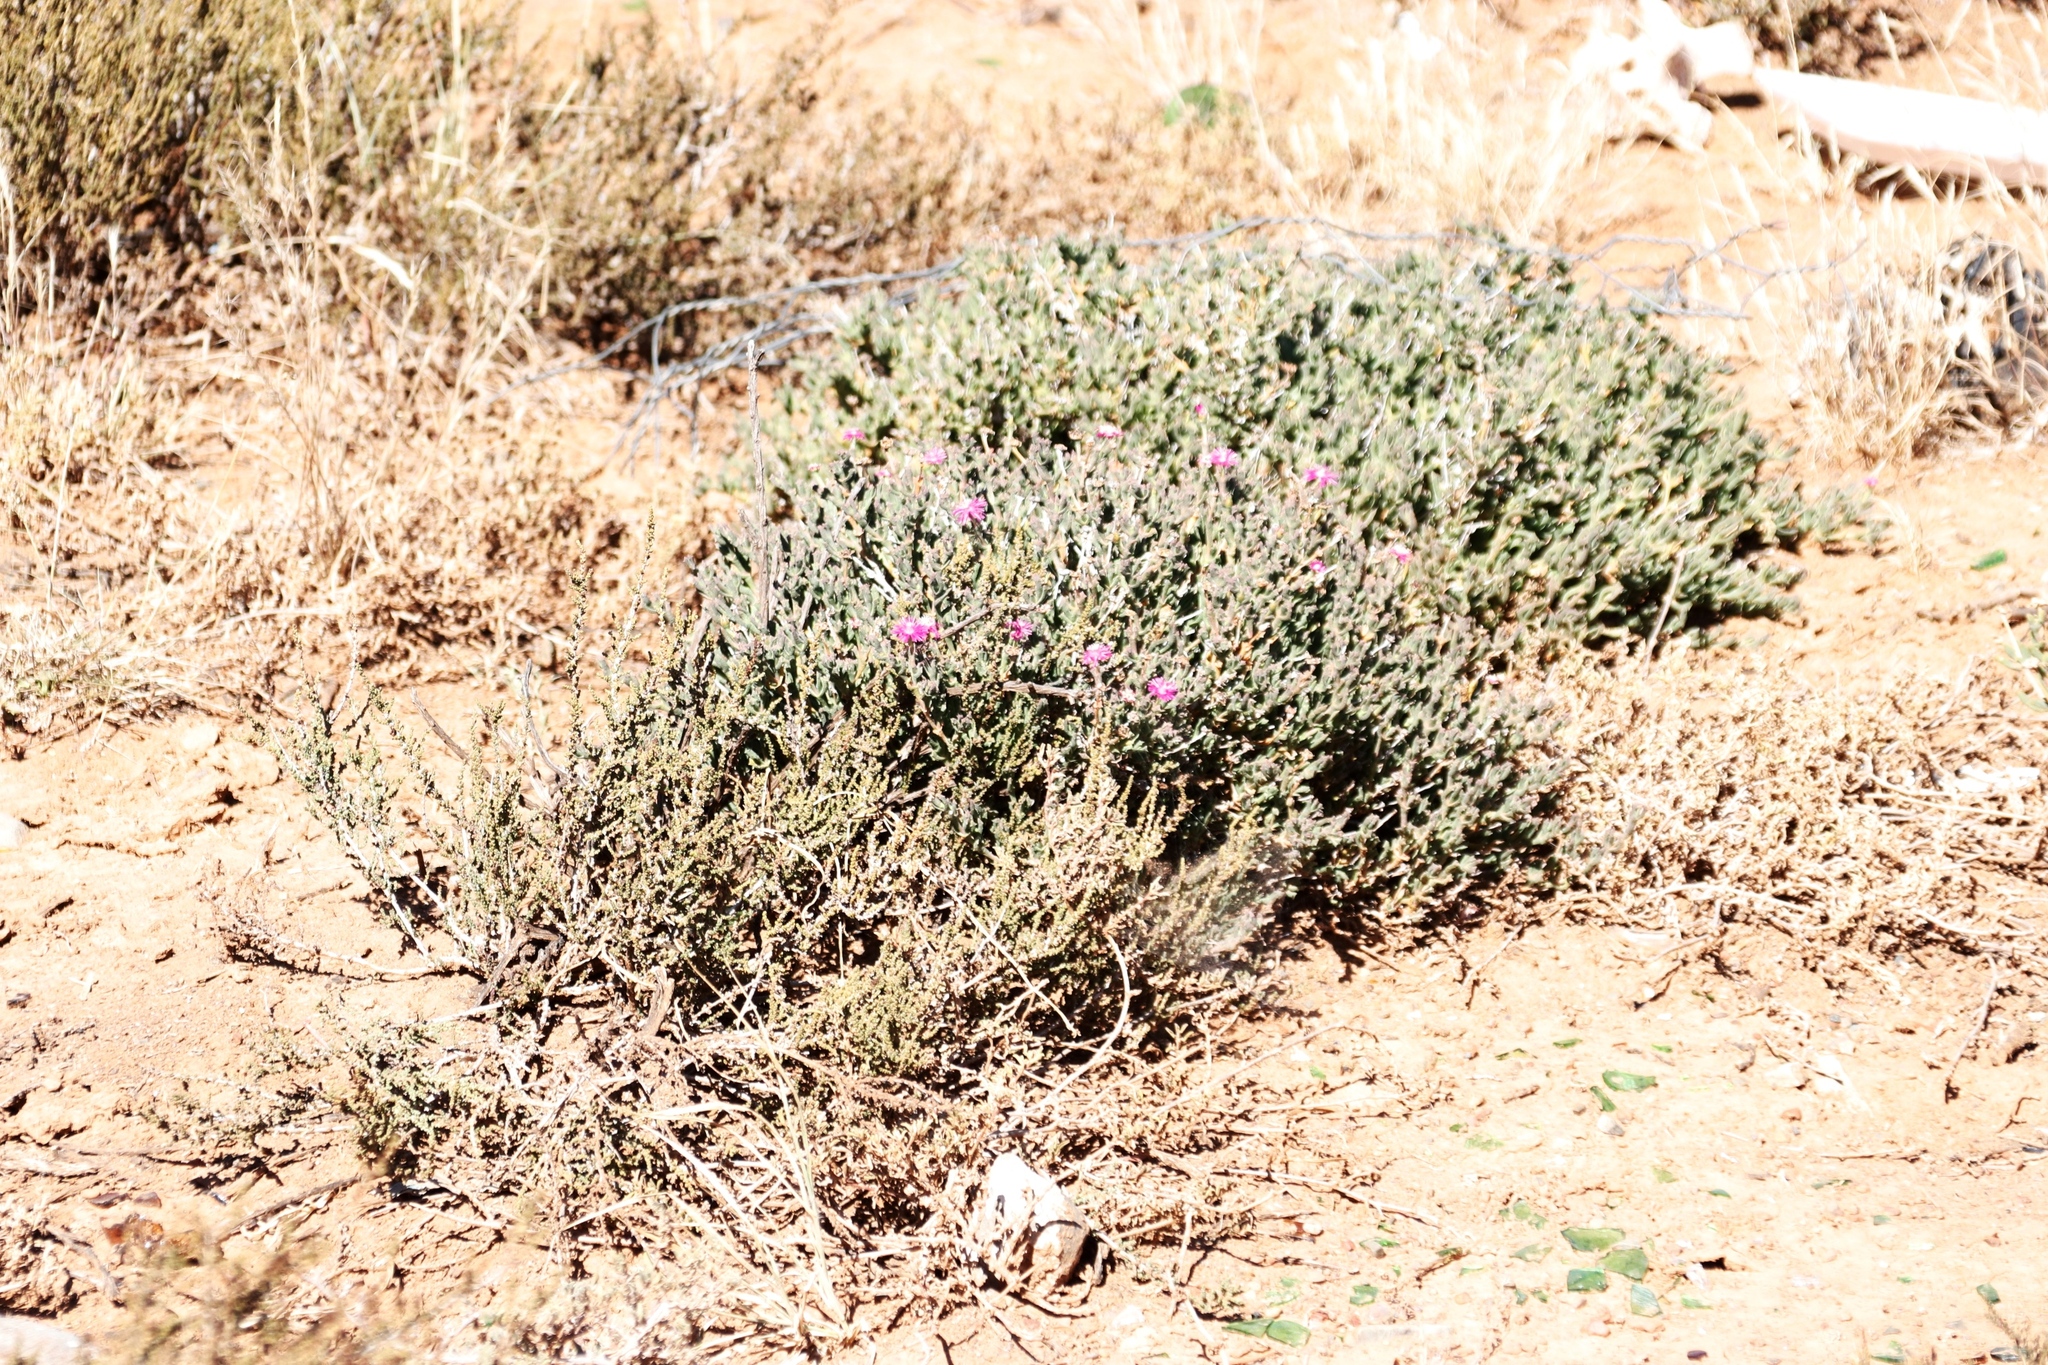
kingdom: Plantae
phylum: Tracheophyta
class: Magnoliopsida
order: Caryophyllales
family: Aizoaceae
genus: Ruschia
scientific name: Ruschia vanderbergiae
